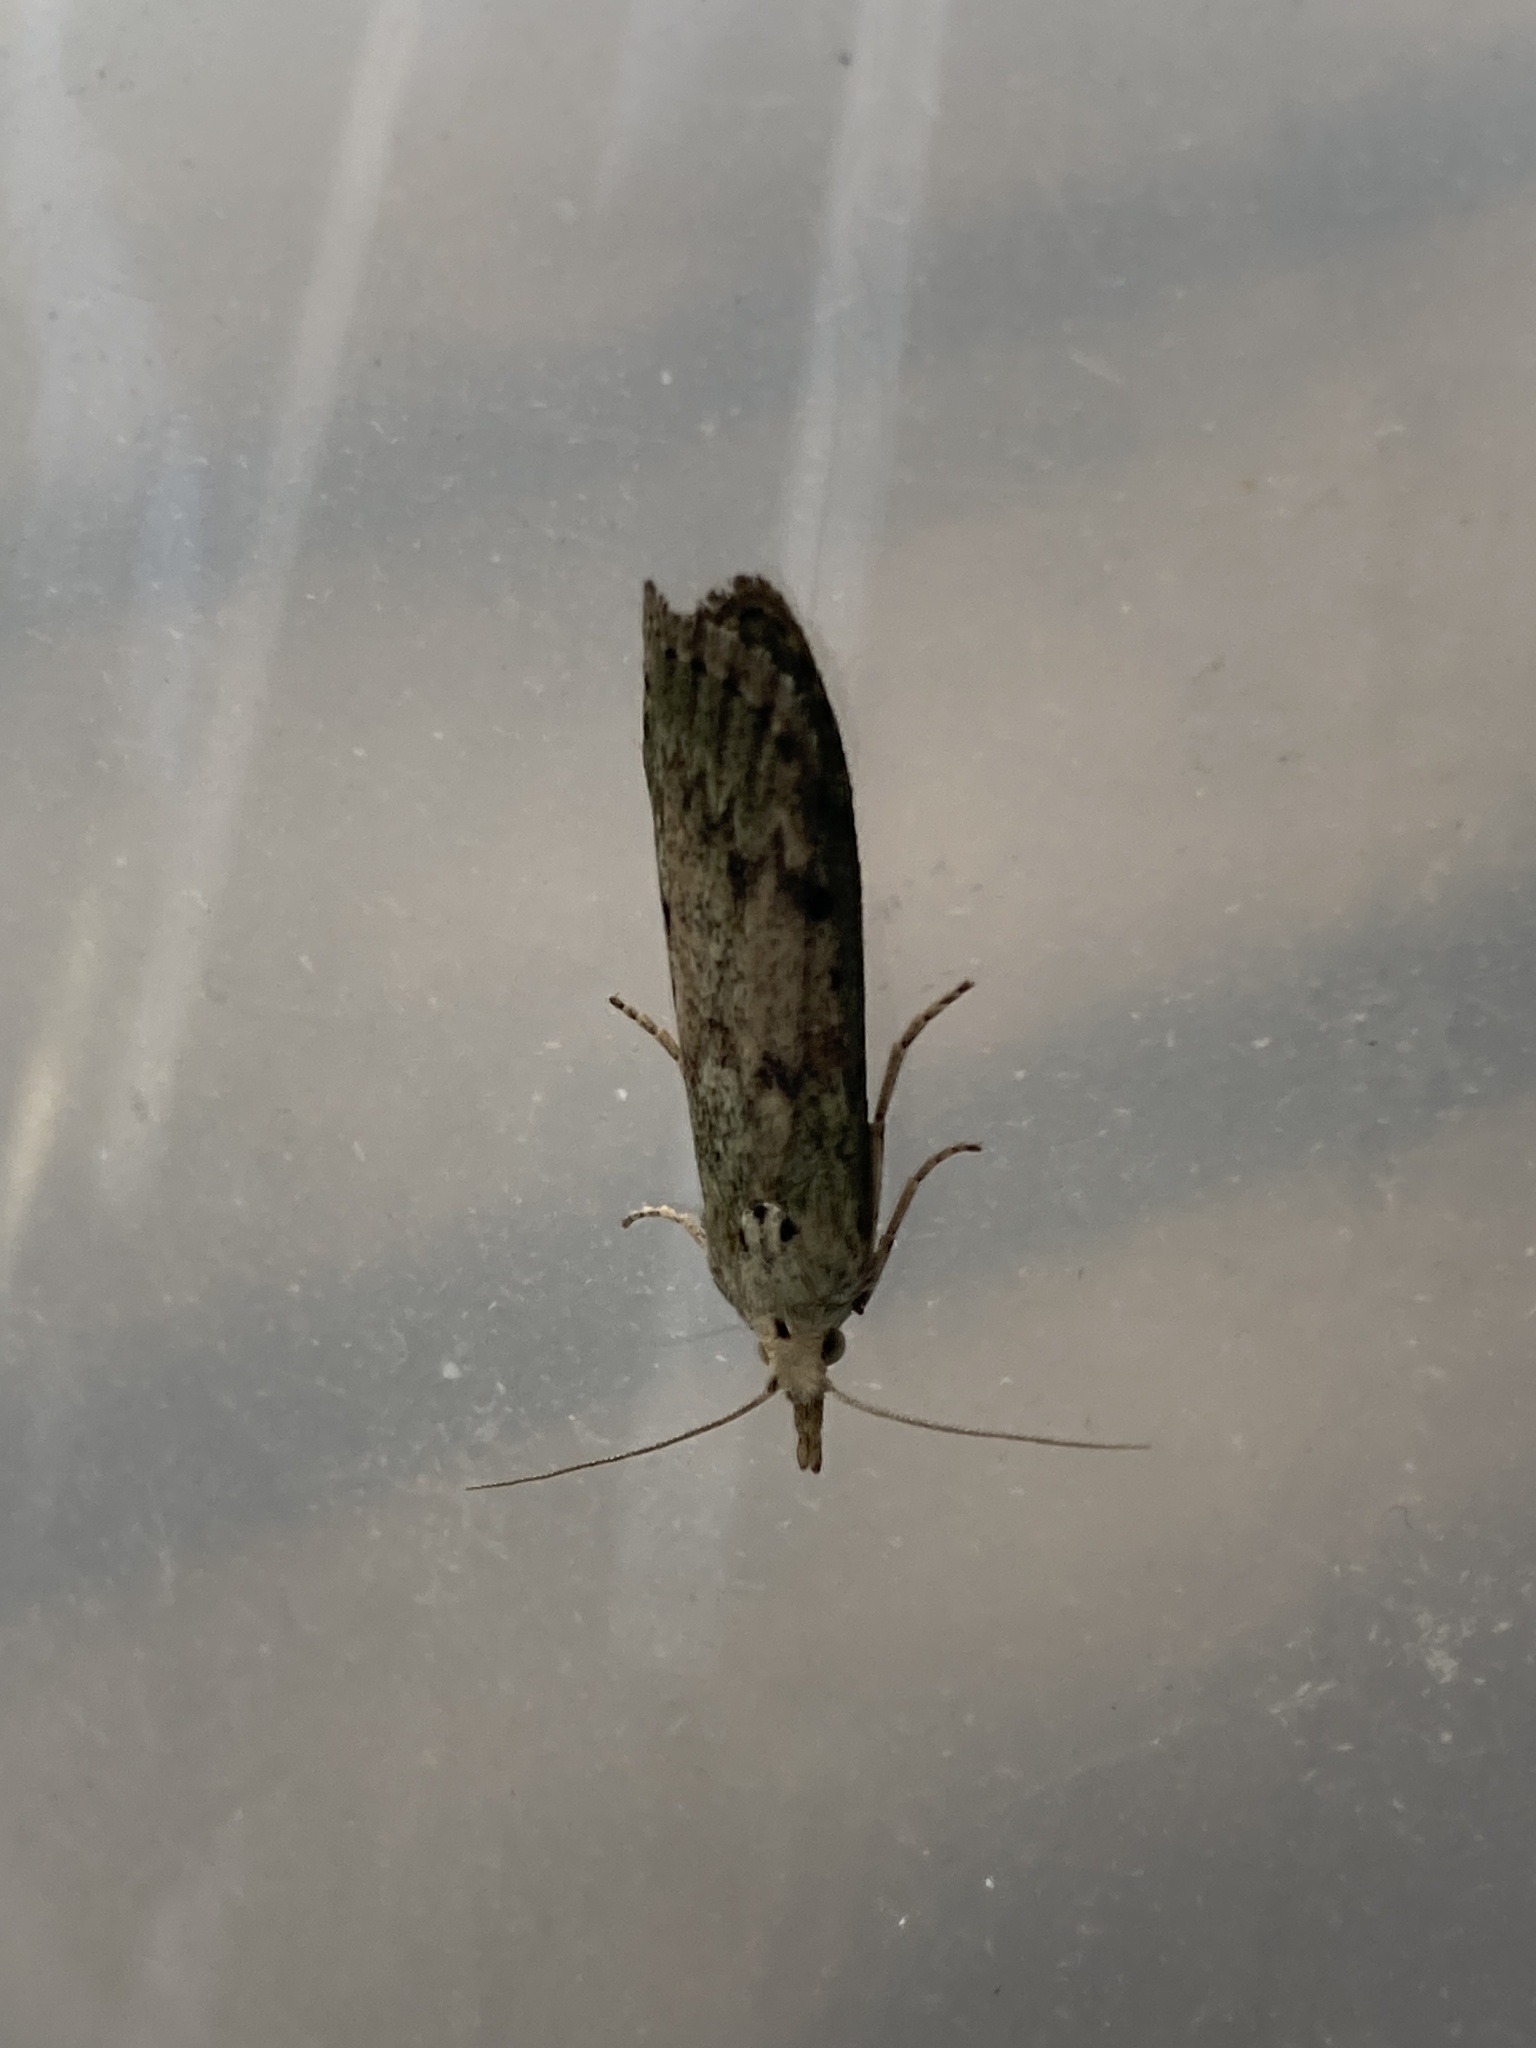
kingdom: Animalia
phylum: Arthropoda
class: Insecta
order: Lepidoptera
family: Pyralidae
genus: Aphomia
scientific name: Aphomia sociella
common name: Bee moth
